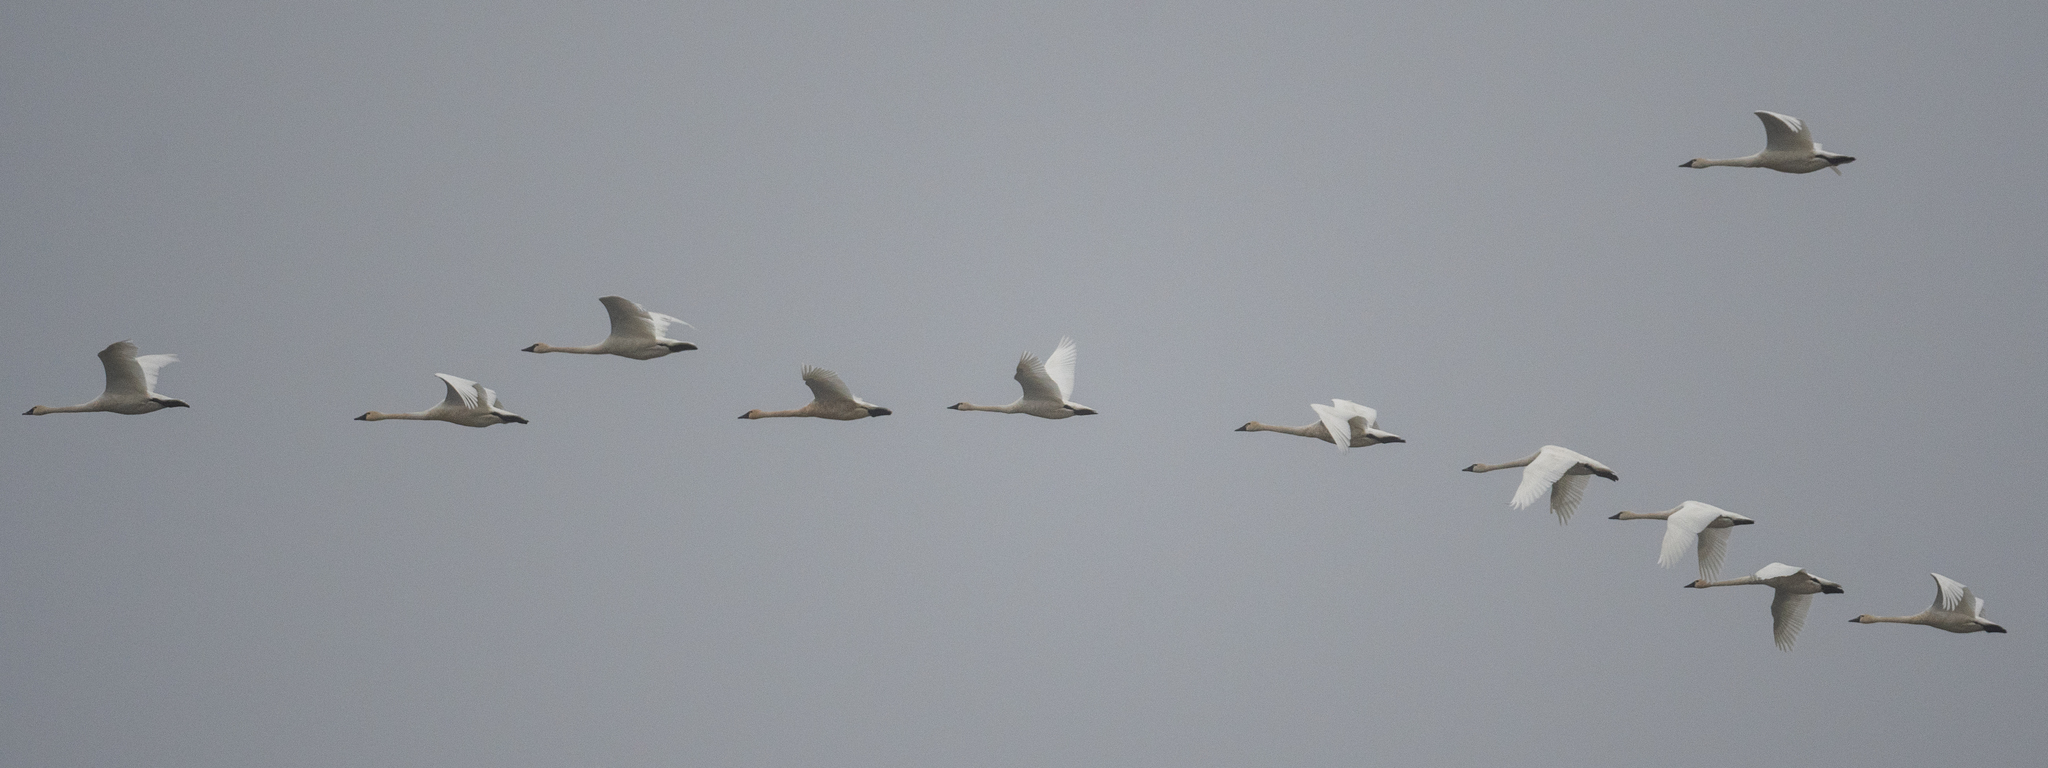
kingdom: Animalia
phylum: Chordata
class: Aves
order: Anseriformes
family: Anatidae
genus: Cygnus
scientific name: Cygnus columbianus
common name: Tundra swan
